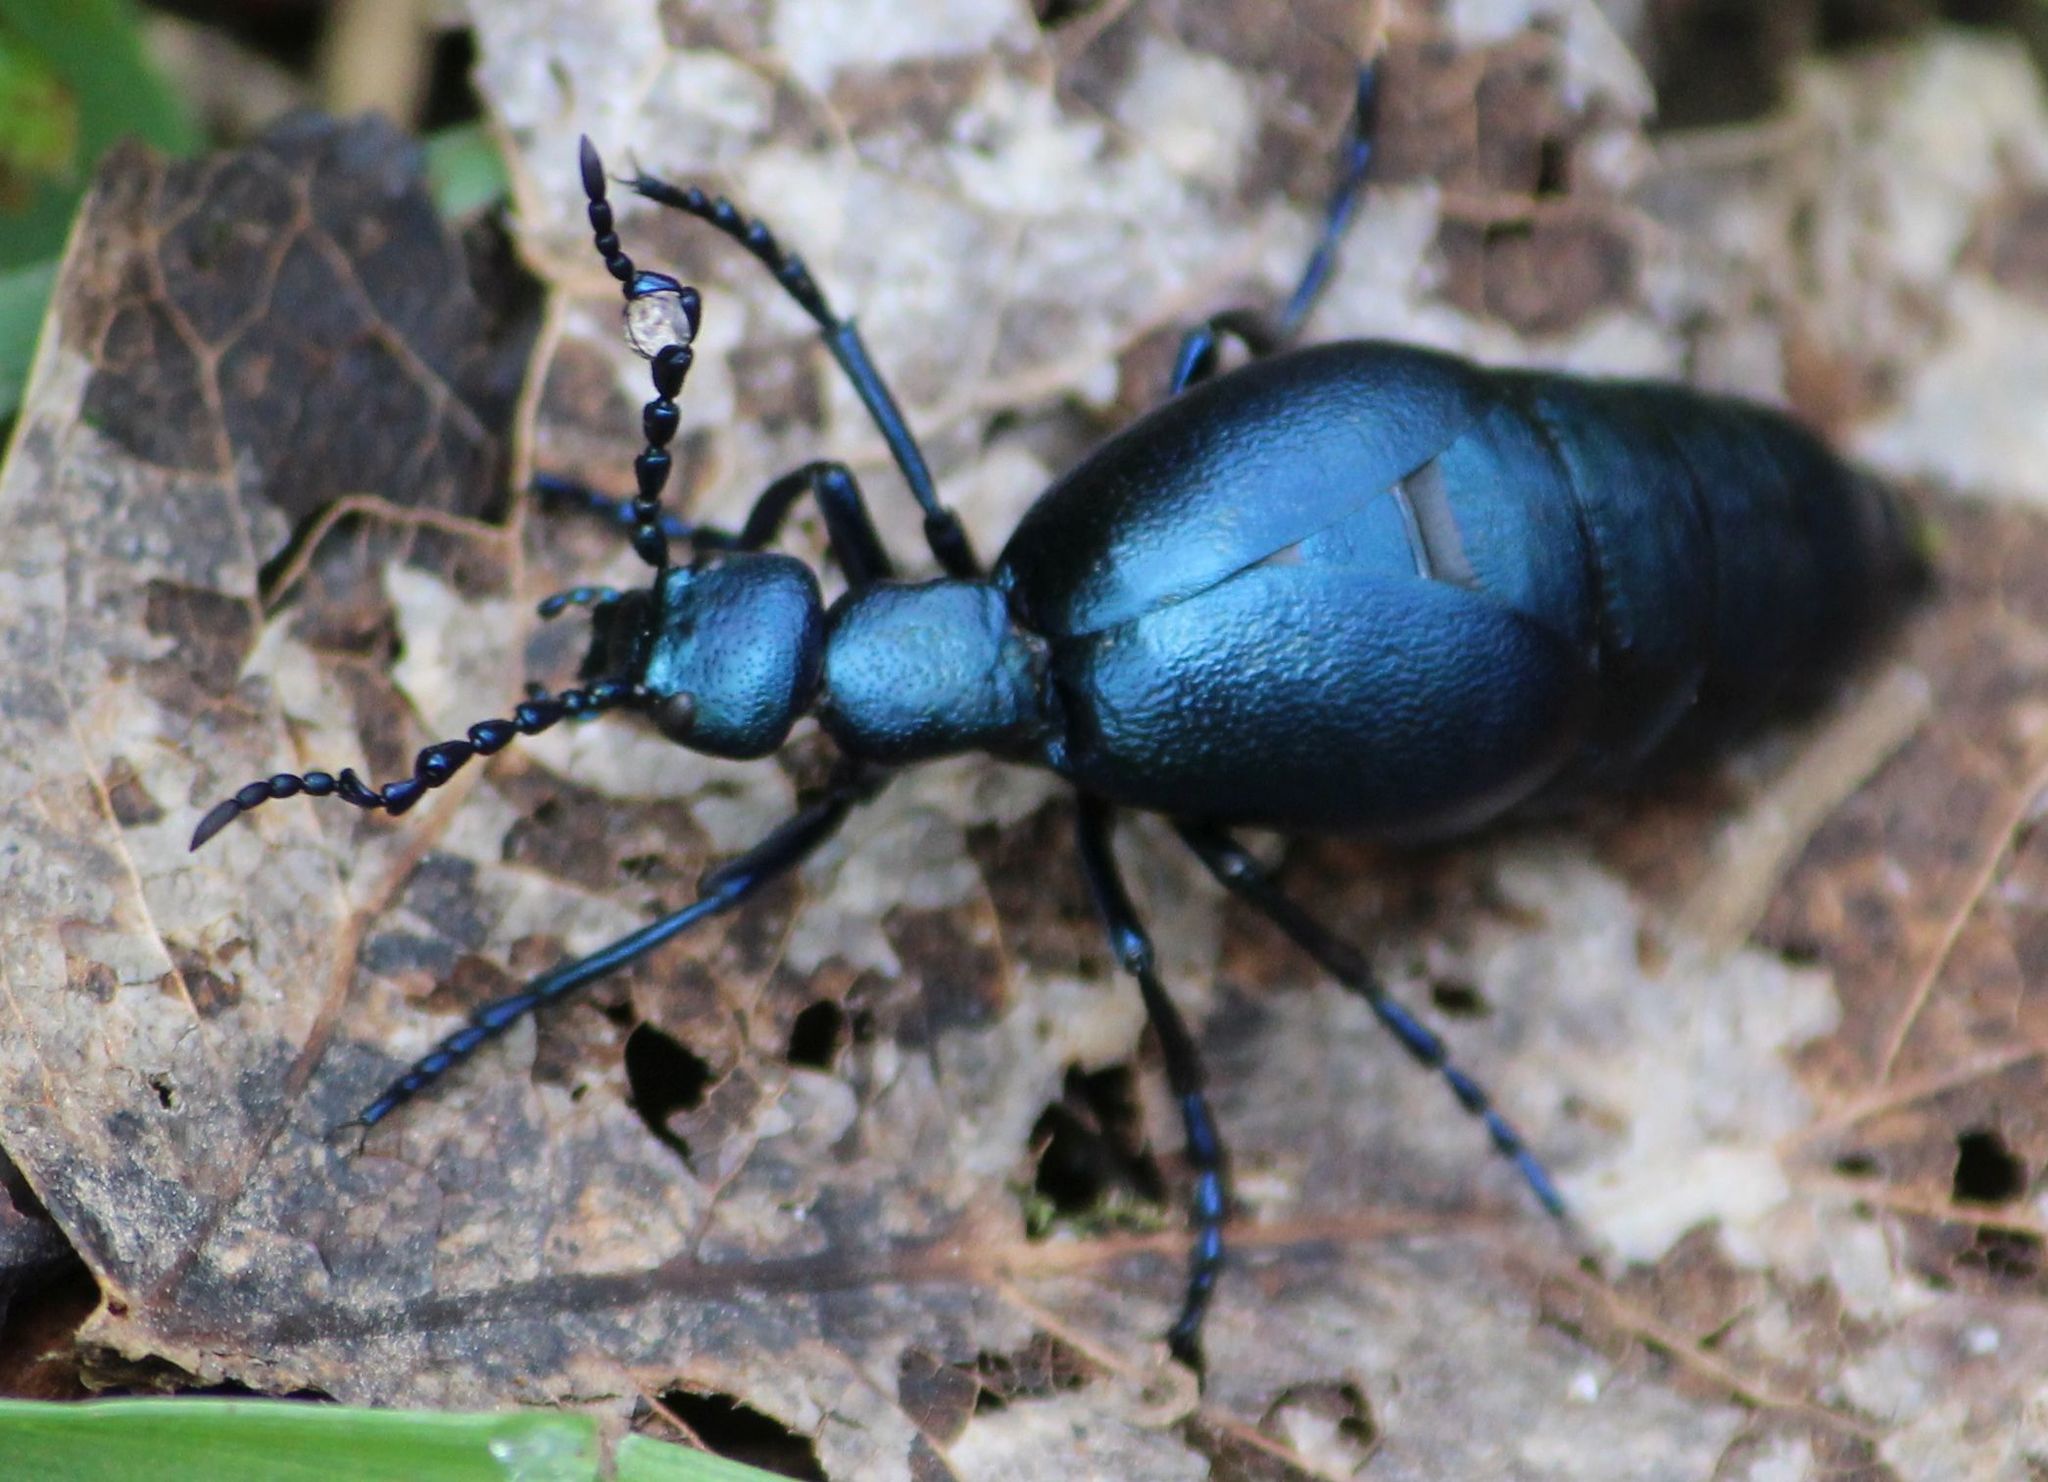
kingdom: Animalia
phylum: Arthropoda
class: Insecta
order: Coleoptera
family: Meloidae
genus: Meloe
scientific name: Meloe violaceus
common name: Violet oil-beetle
